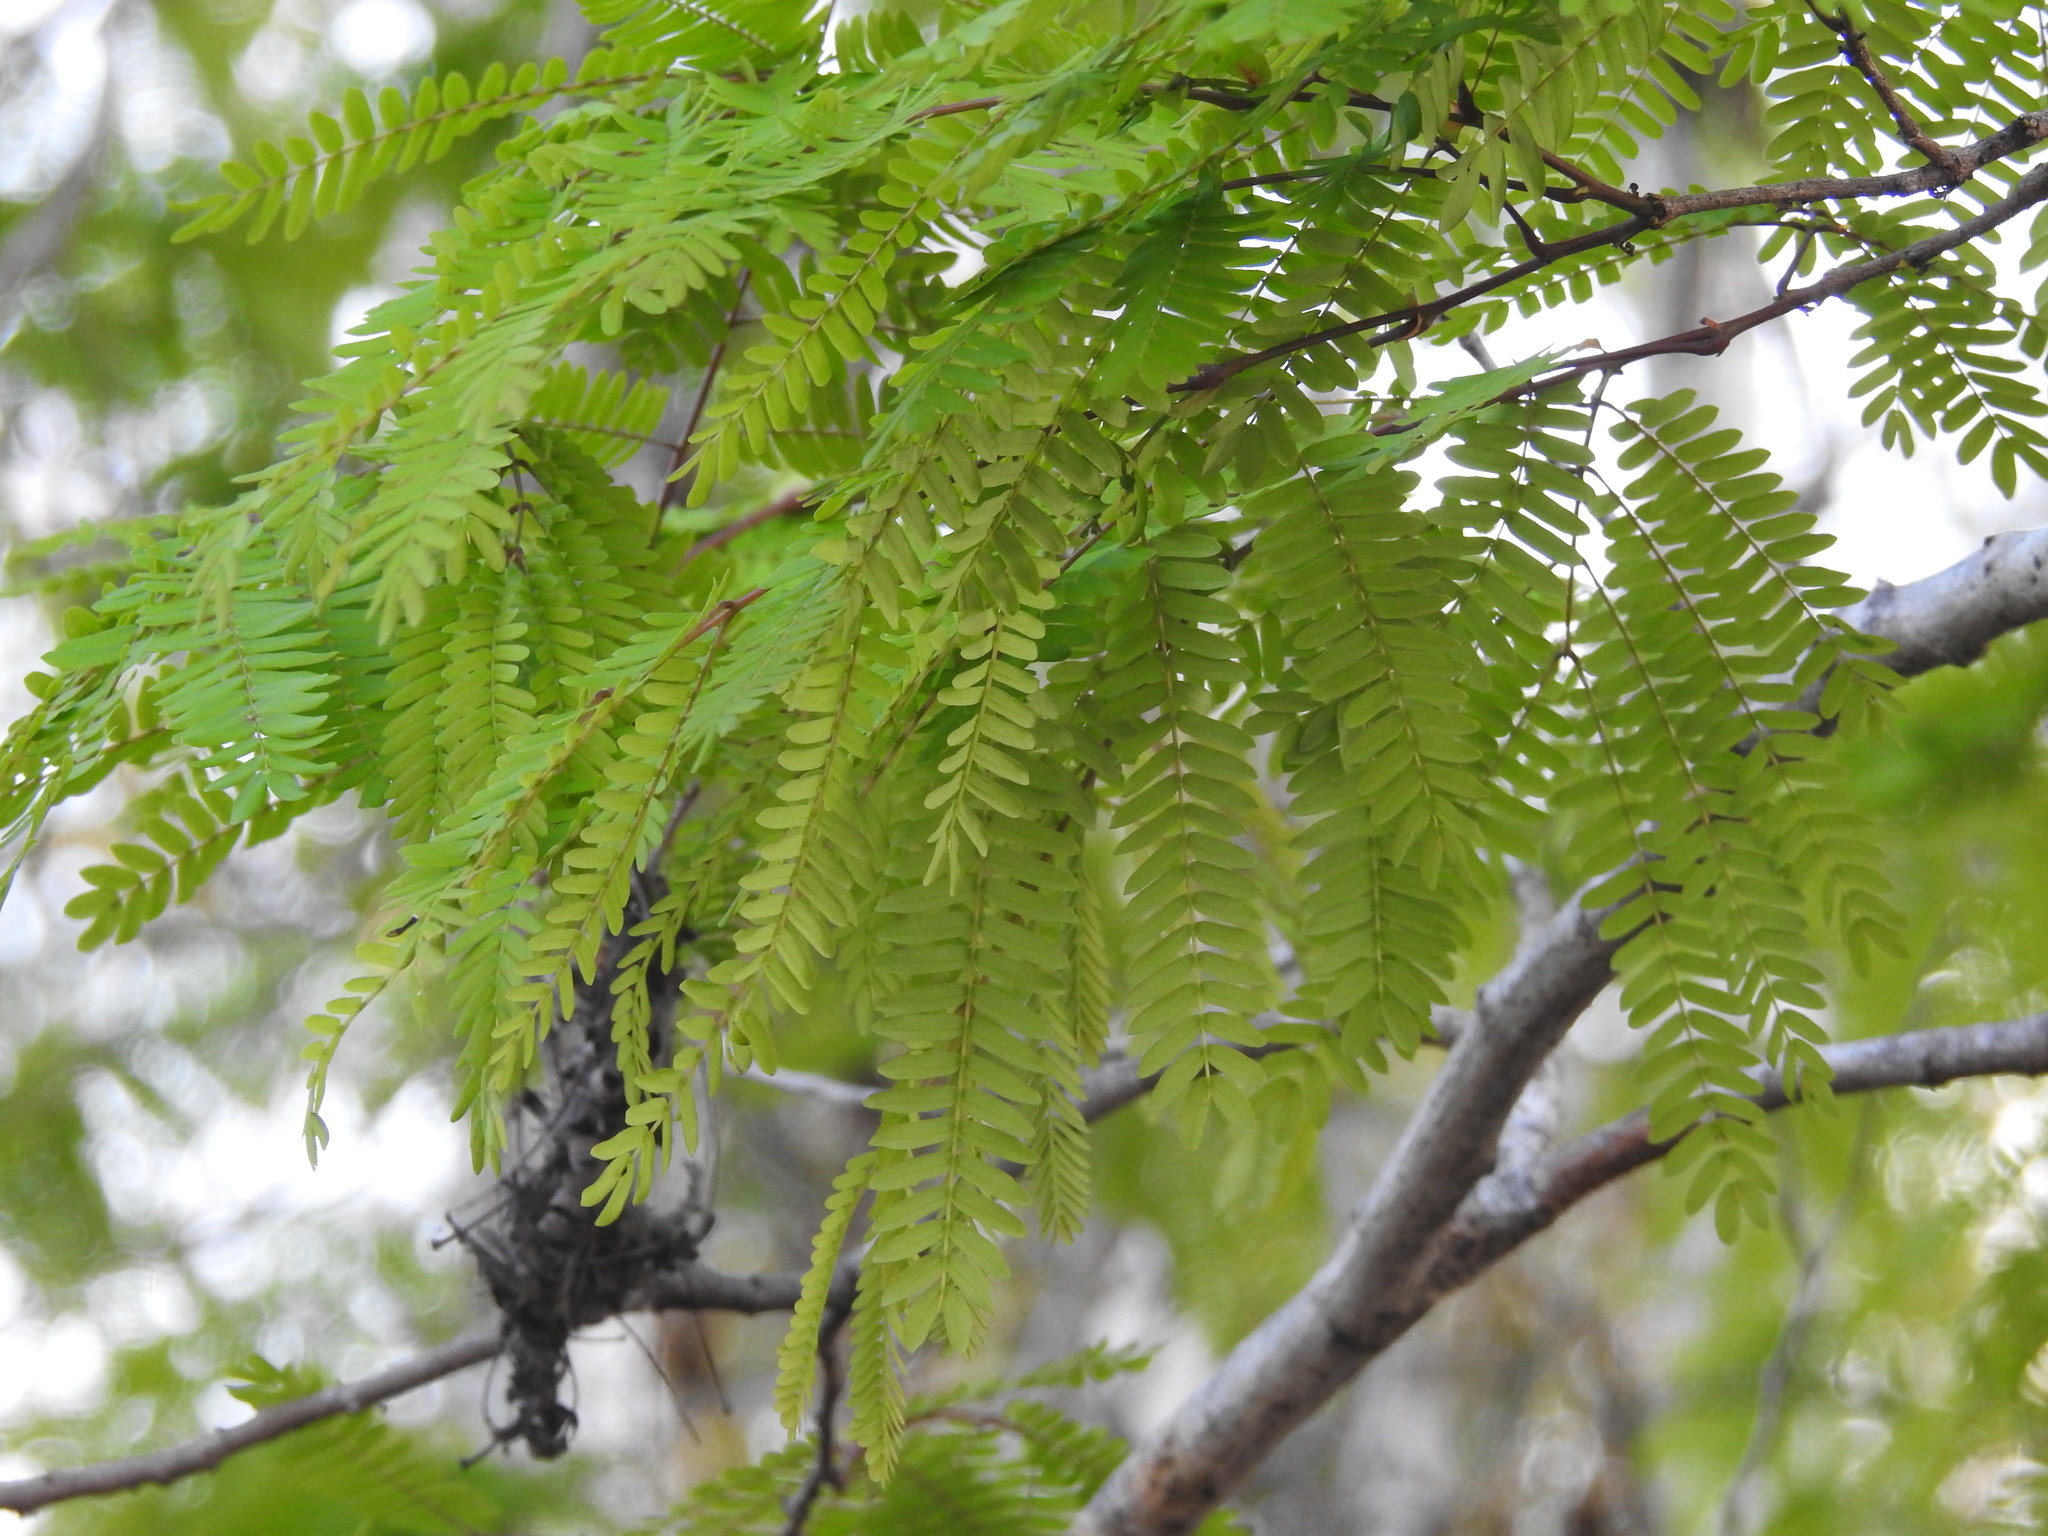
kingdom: Plantae
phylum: Tracheophyta
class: Magnoliopsida
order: Fabales
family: Fabaceae
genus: Lysiloma
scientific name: Lysiloma latisiliquum
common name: Wild tamarind
